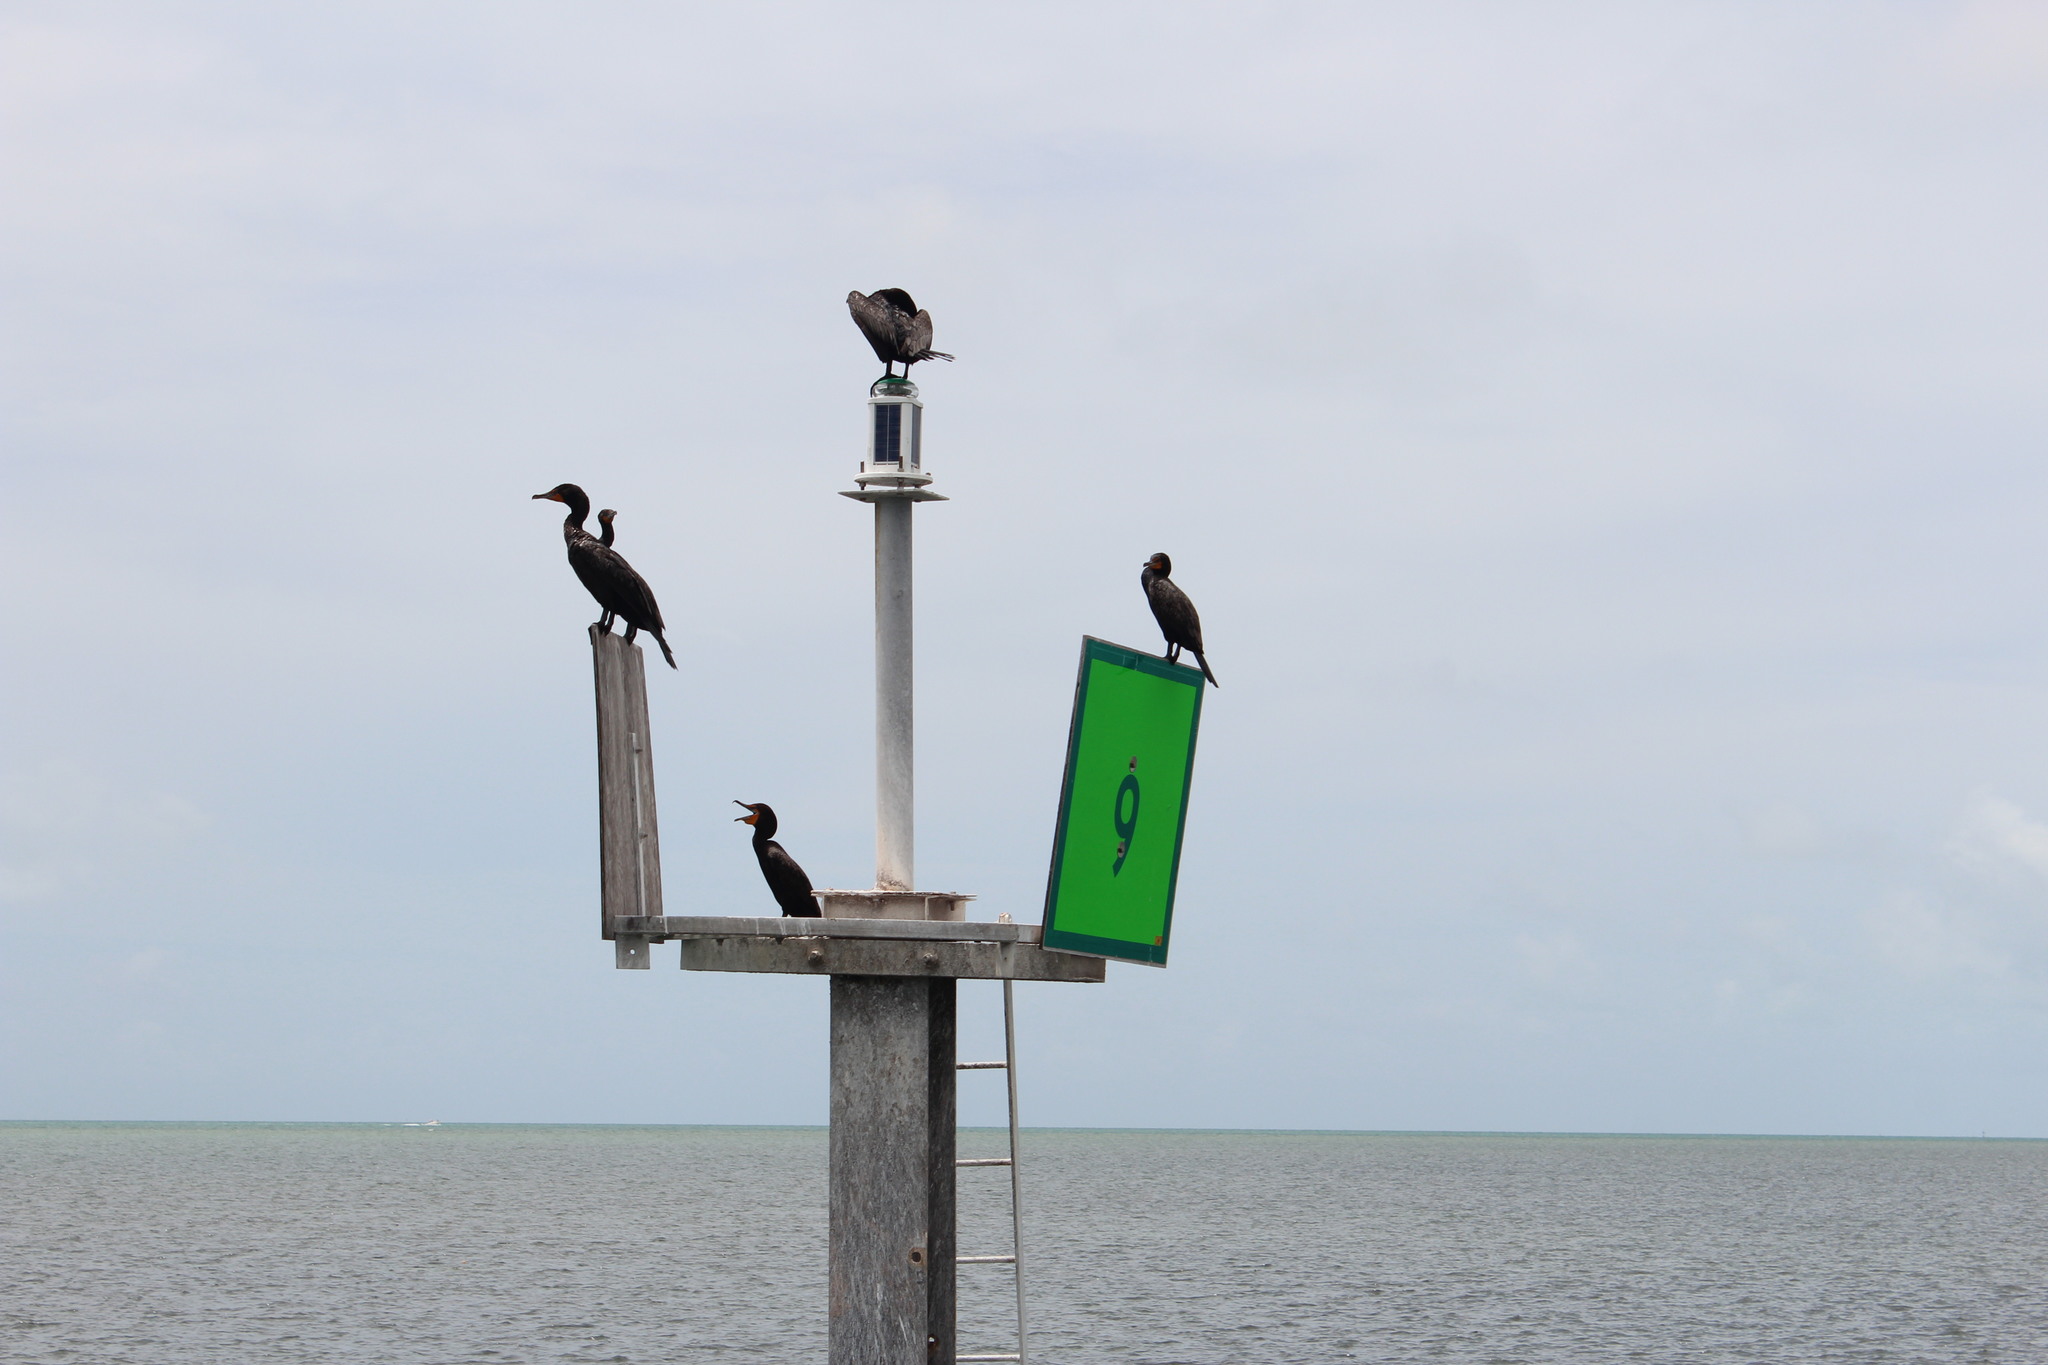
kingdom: Animalia
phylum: Chordata
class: Aves
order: Suliformes
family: Phalacrocoracidae
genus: Phalacrocorax
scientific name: Phalacrocorax auritus
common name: Double-crested cormorant
